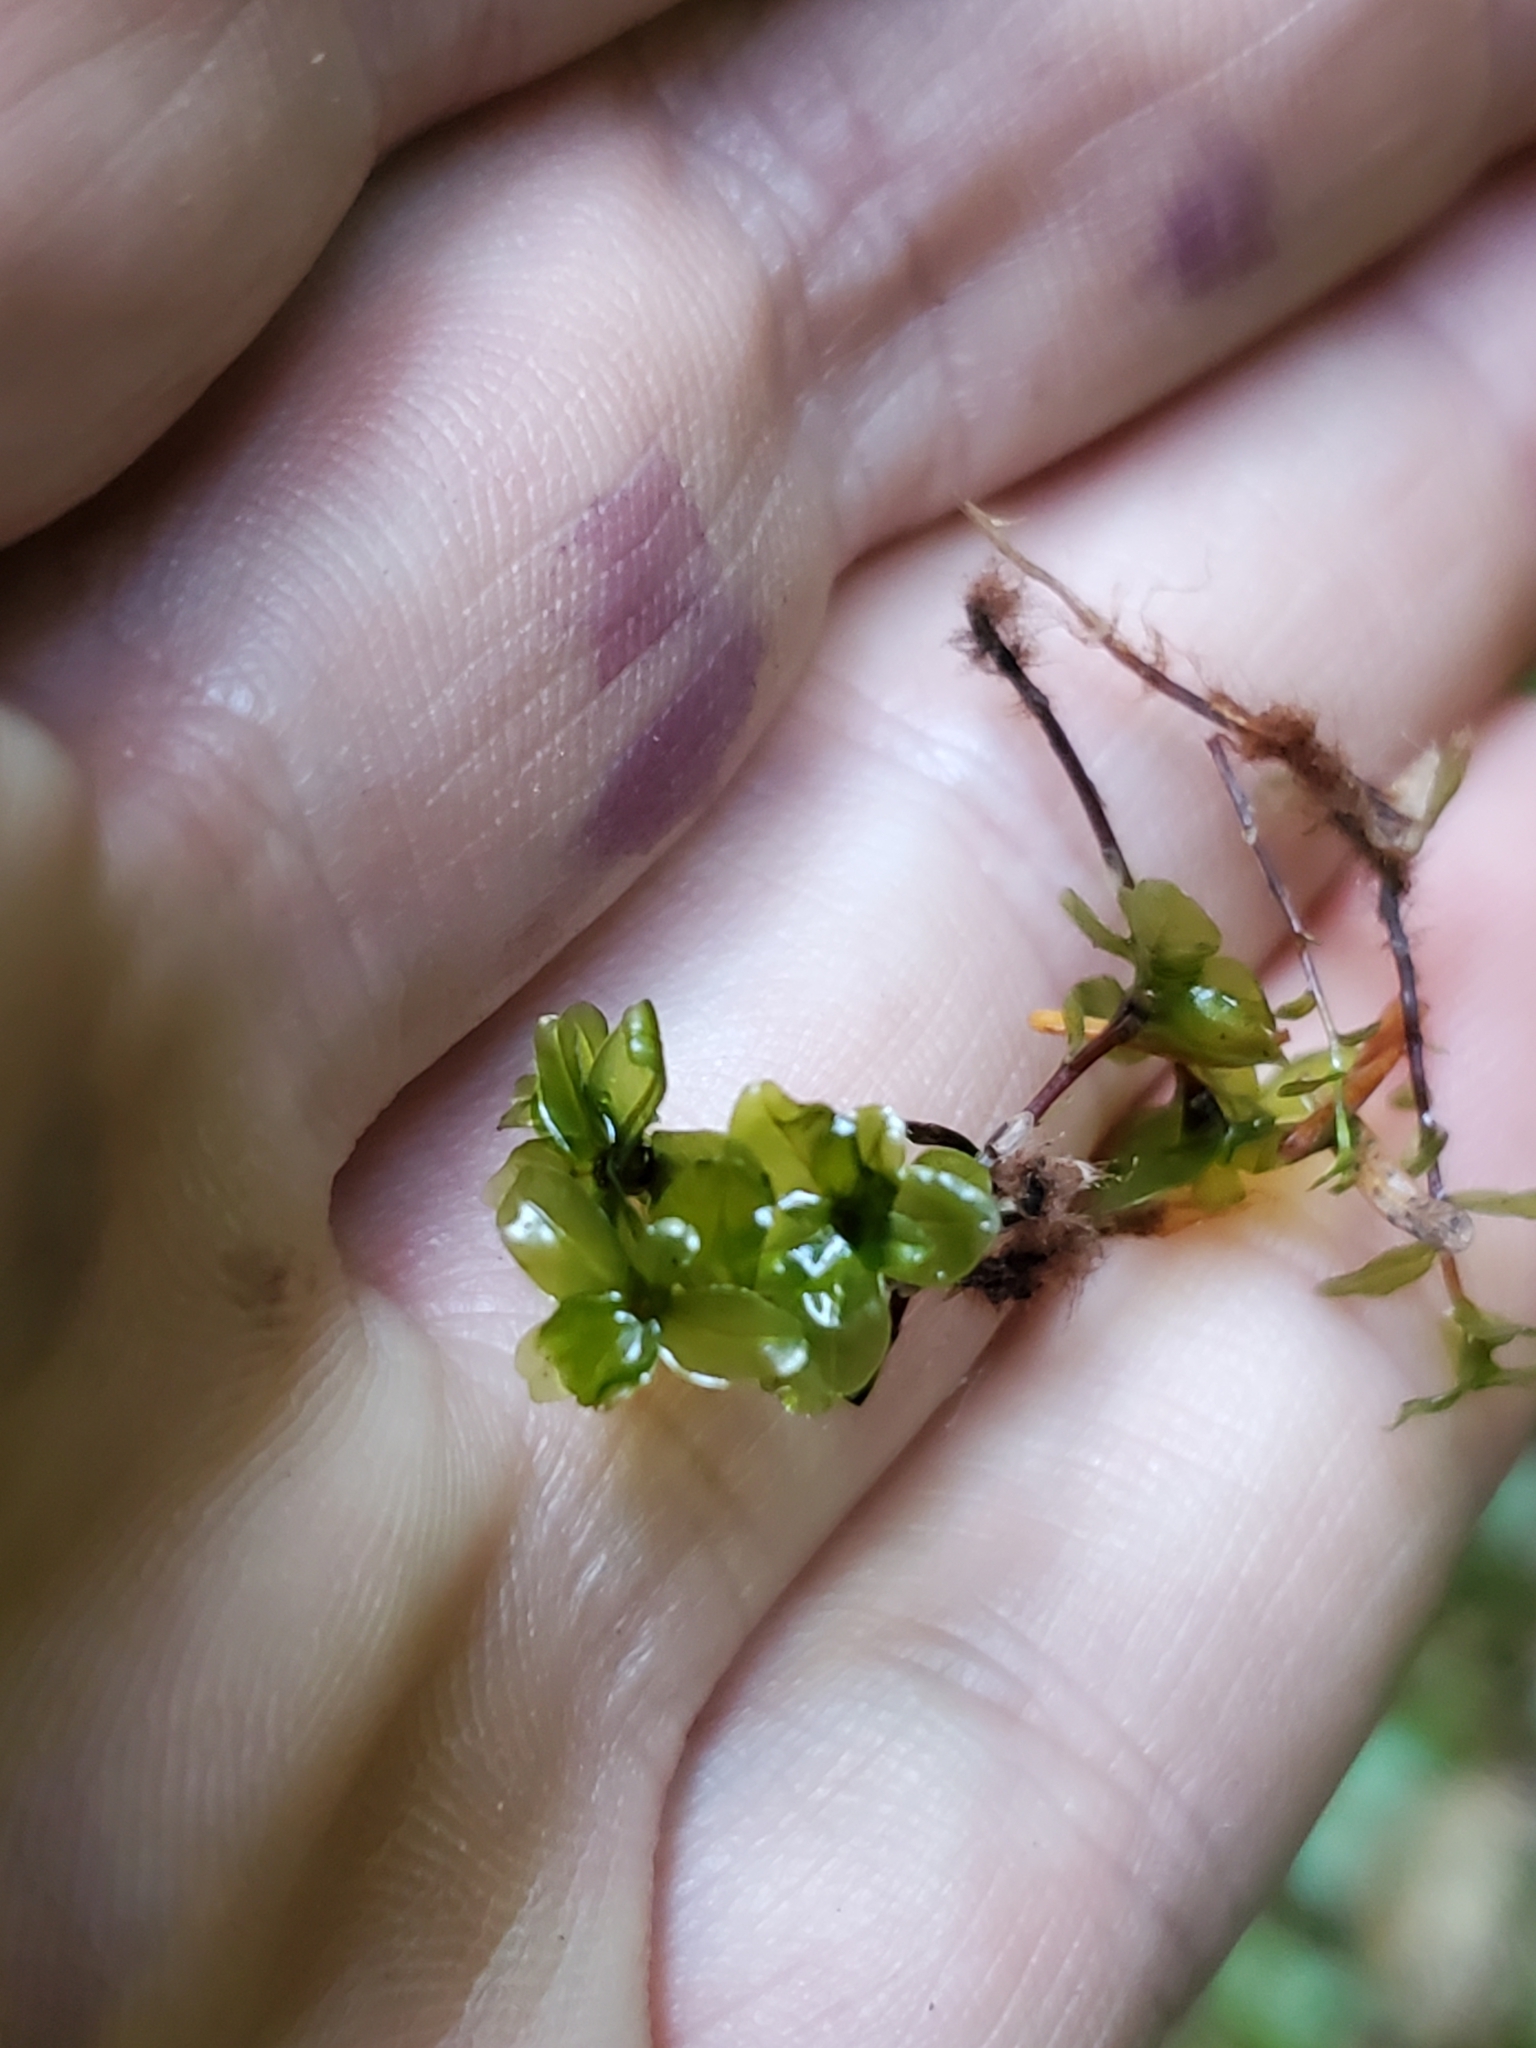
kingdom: Plantae
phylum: Bryophyta
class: Bryopsida
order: Bryales
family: Mniaceae
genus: Rhizomnium
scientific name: Rhizomnium glabrescens
